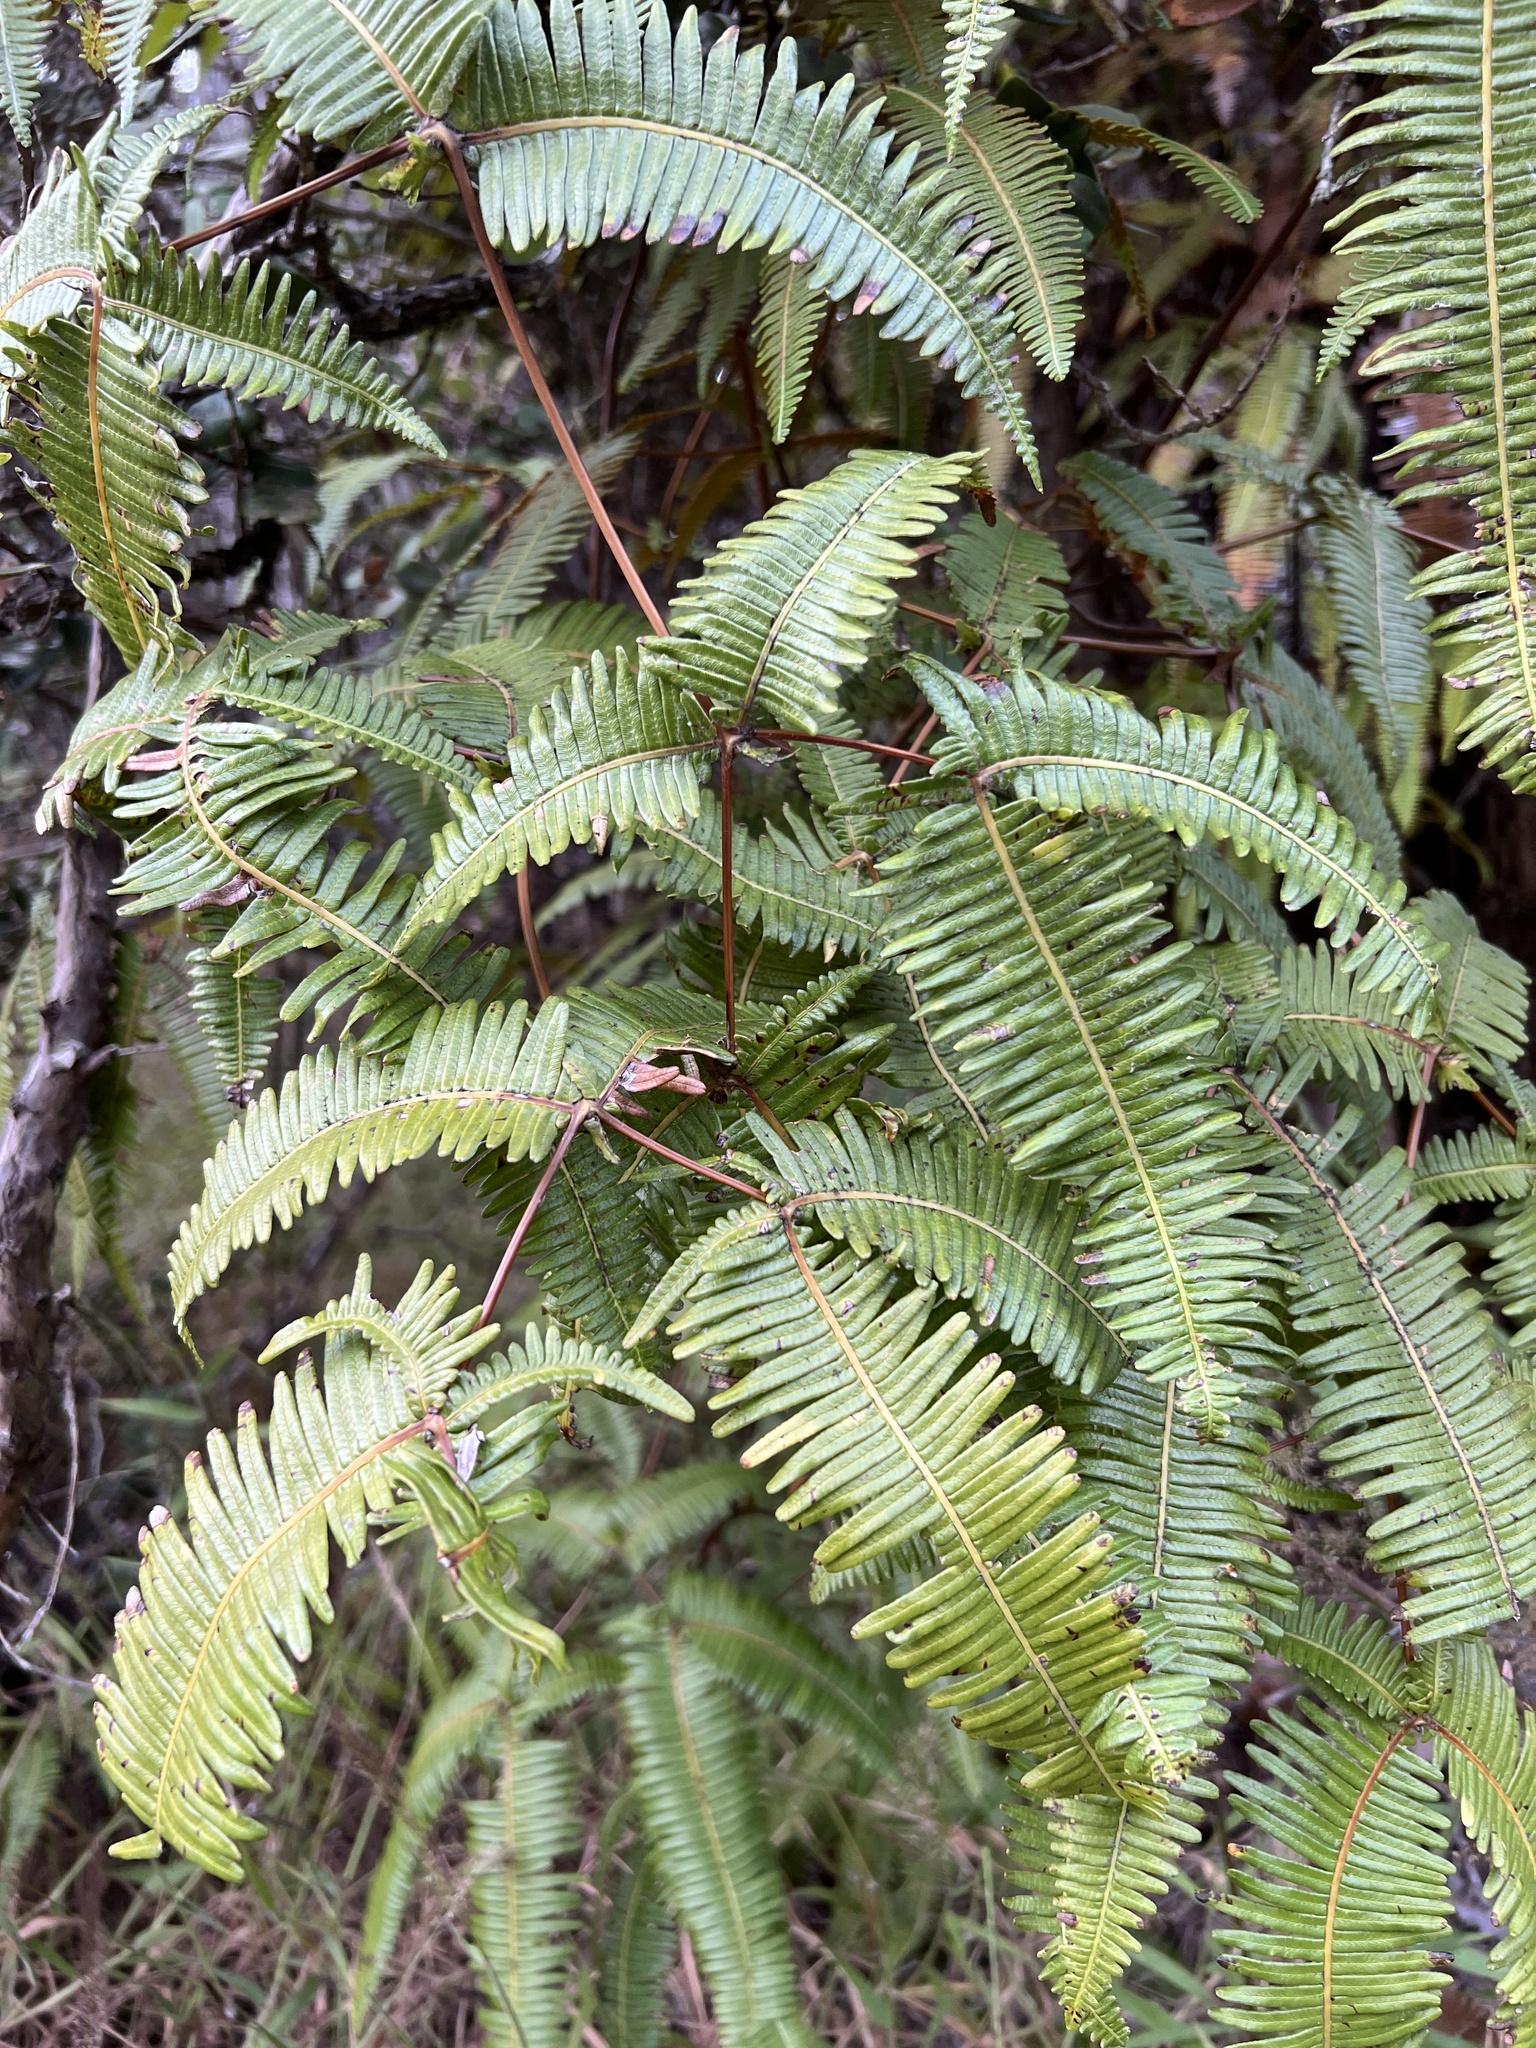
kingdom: Plantae
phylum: Tracheophyta
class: Polypodiopsida
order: Gleicheniales
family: Gleicheniaceae
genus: Dicranopteris
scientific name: Dicranopteris linearis
